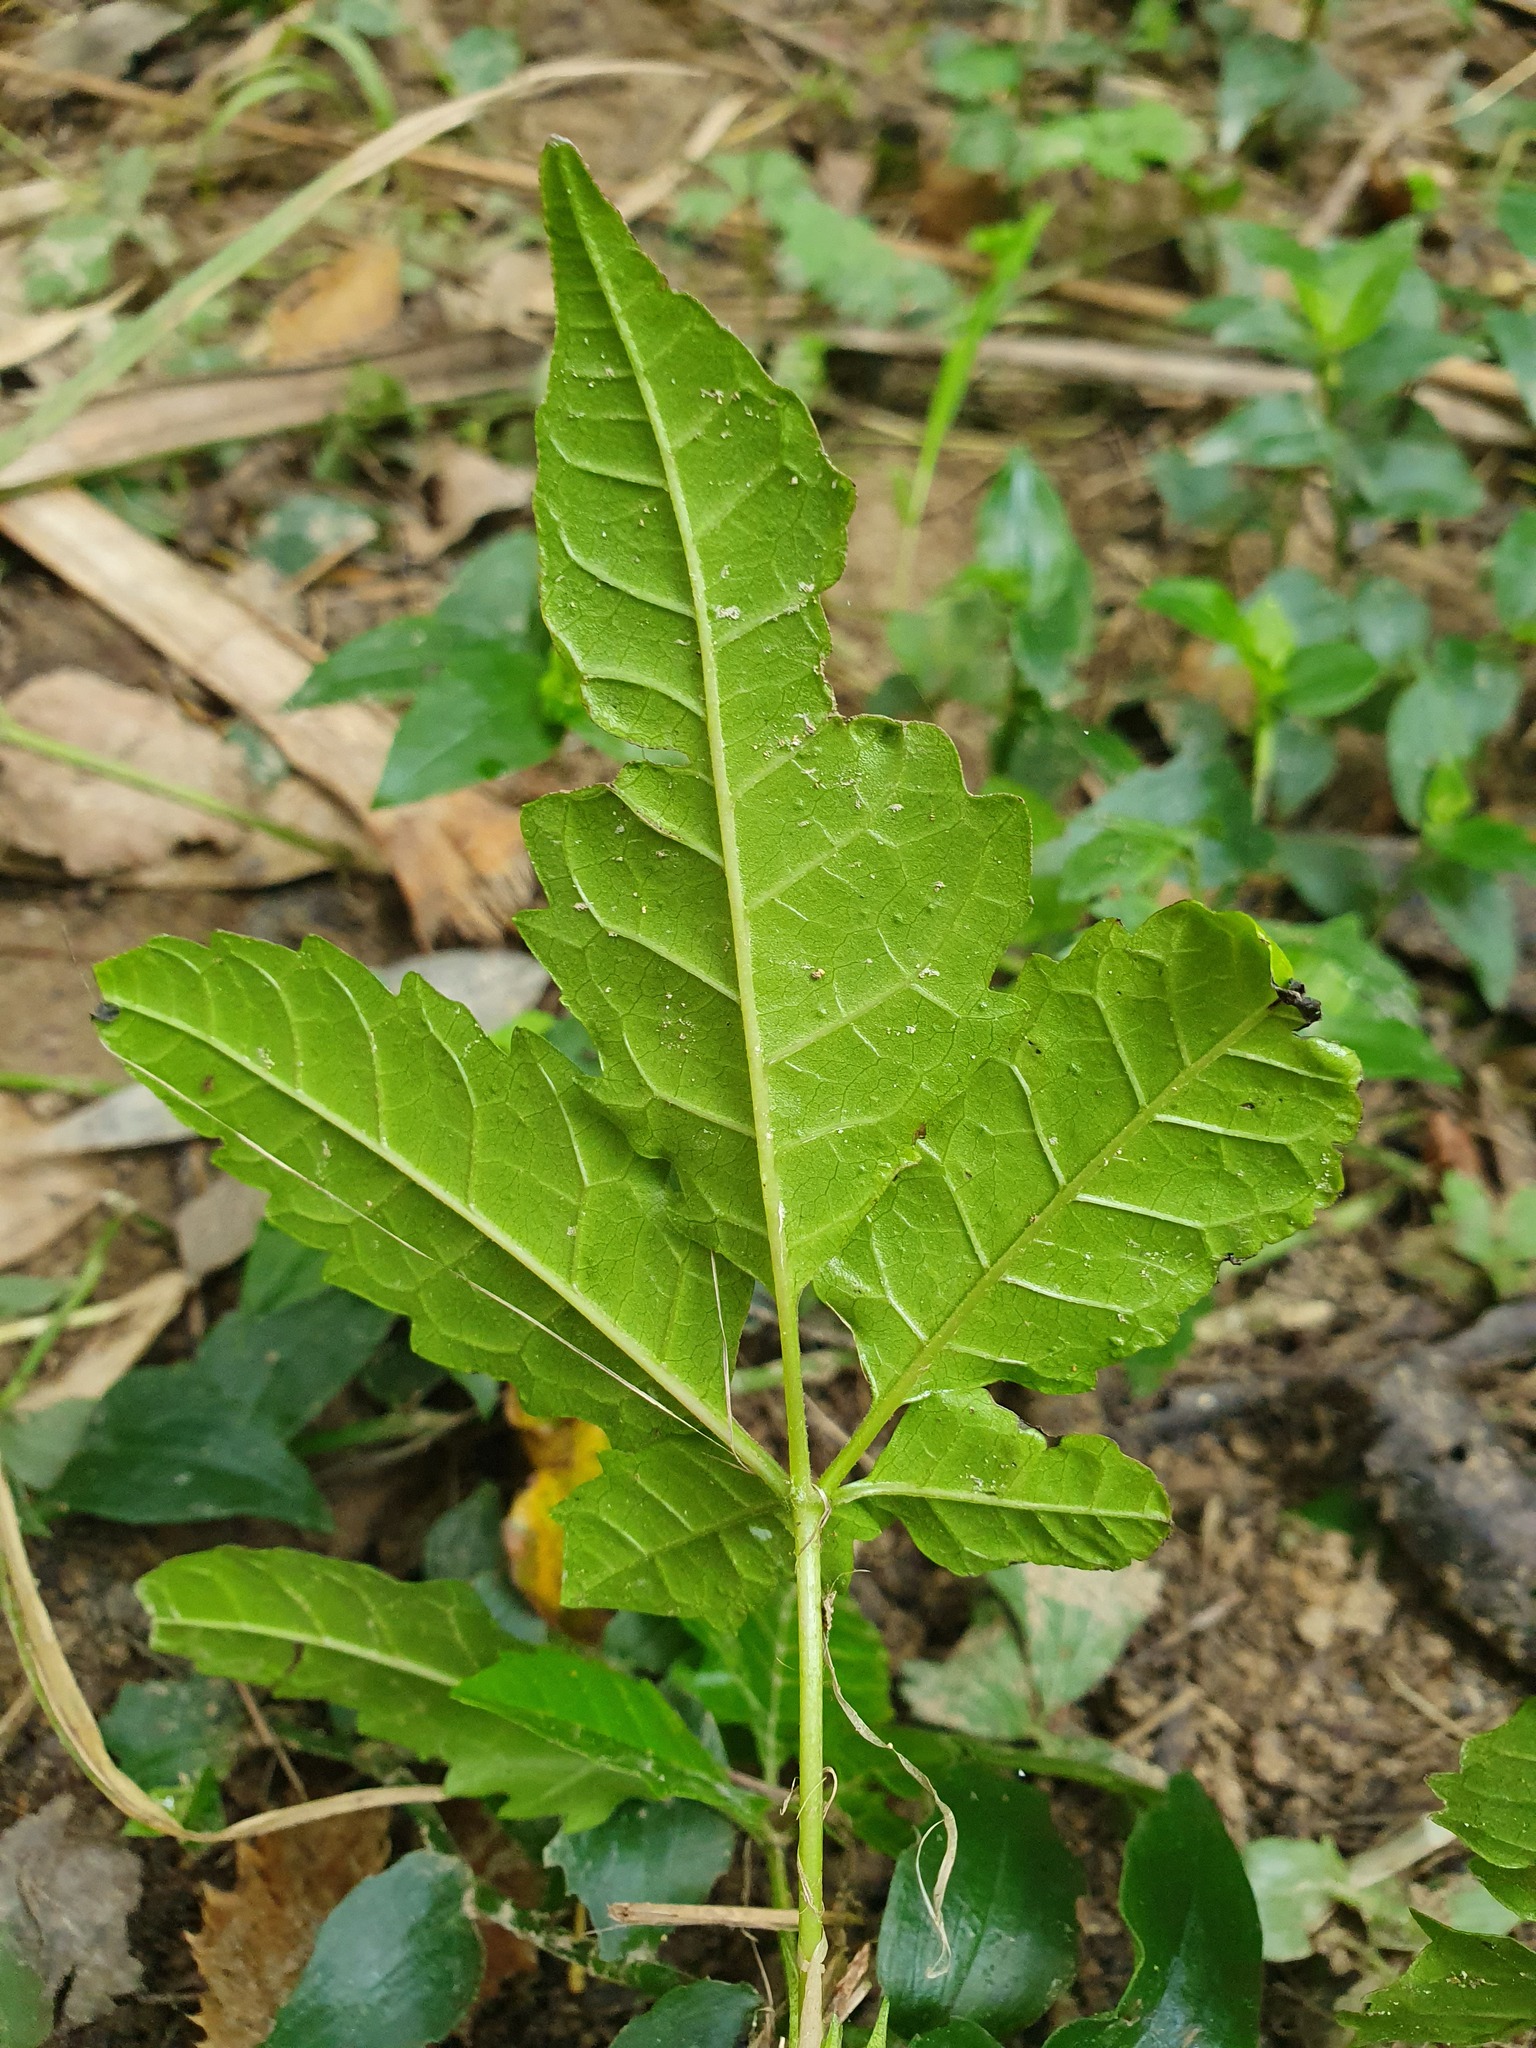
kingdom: Plantae
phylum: Tracheophyta
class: Magnoliopsida
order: Lamiales
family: Lamiaceae
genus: Vitex
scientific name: Vitex lucens
